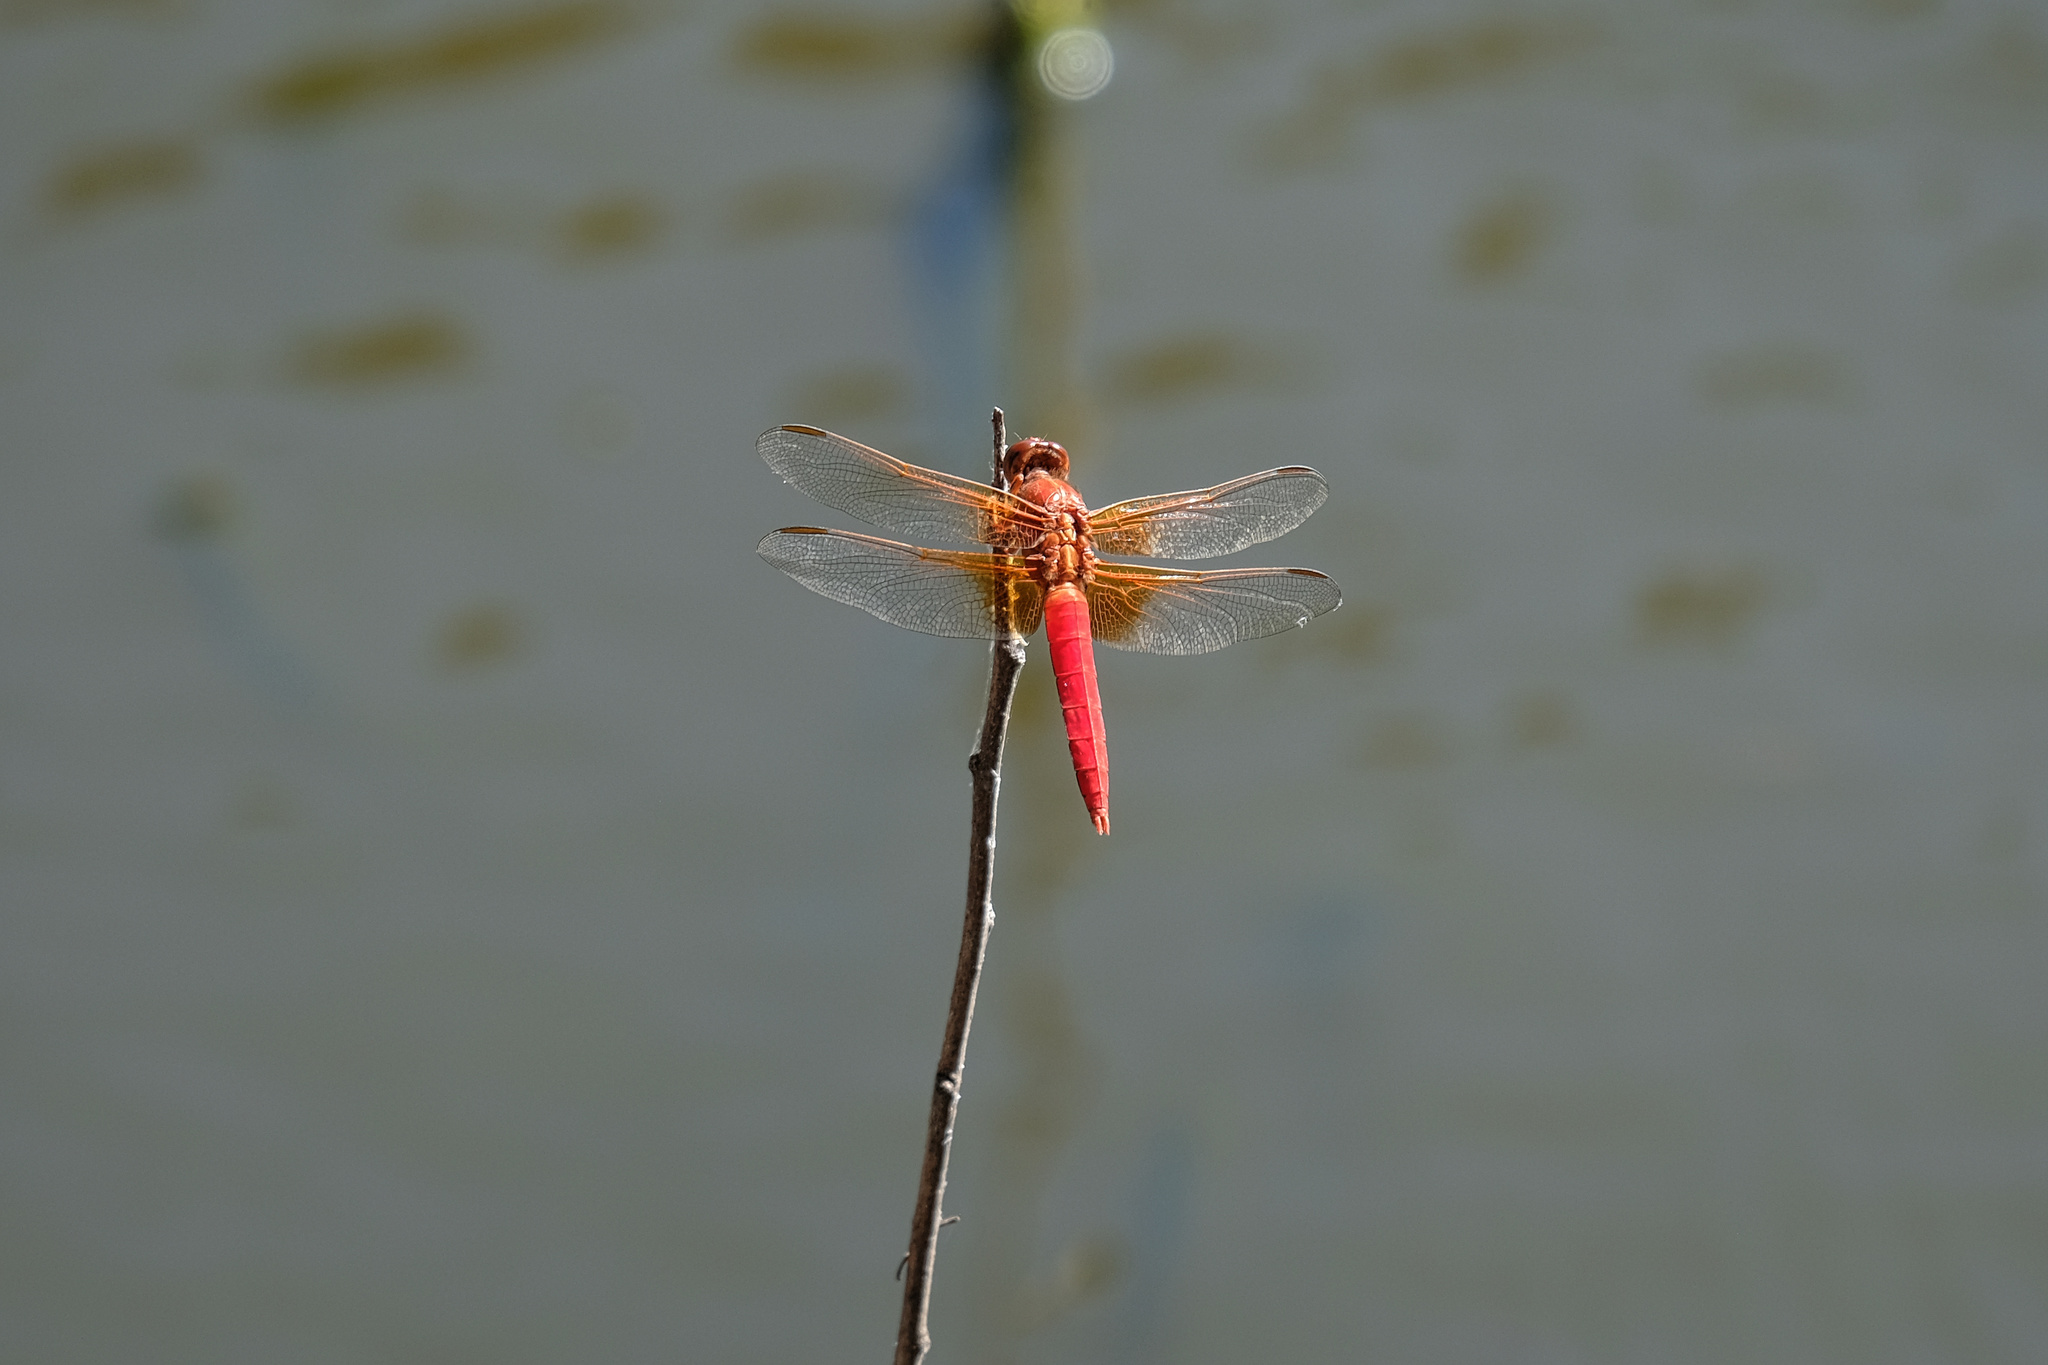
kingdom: Animalia
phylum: Arthropoda
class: Insecta
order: Odonata
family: Libellulidae
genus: Libellula
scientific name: Libellula croceipennis
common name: Neon skimmer
